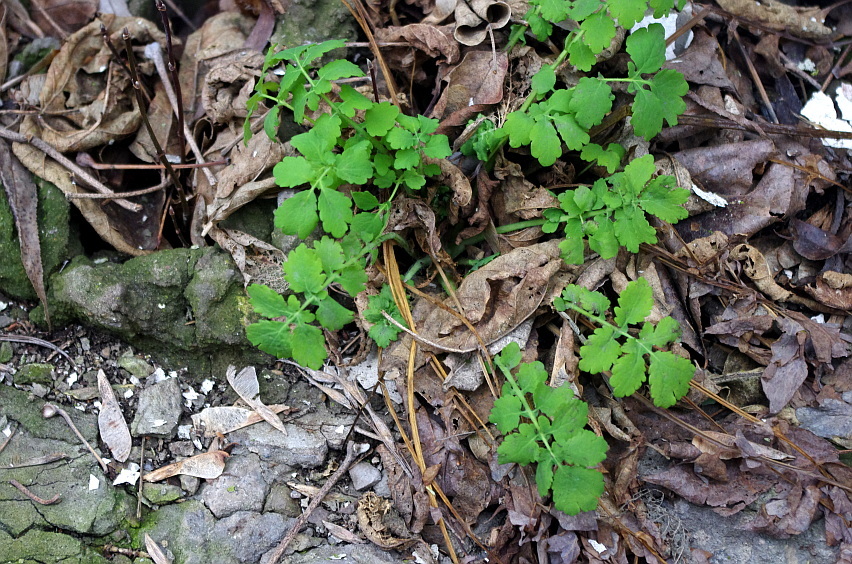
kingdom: Plantae
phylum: Tracheophyta
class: Magnoliopsida
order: Ranunculales
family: Papaveraceae
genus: Chelidonium
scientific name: Chelidonium majus
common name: Greater celandine
